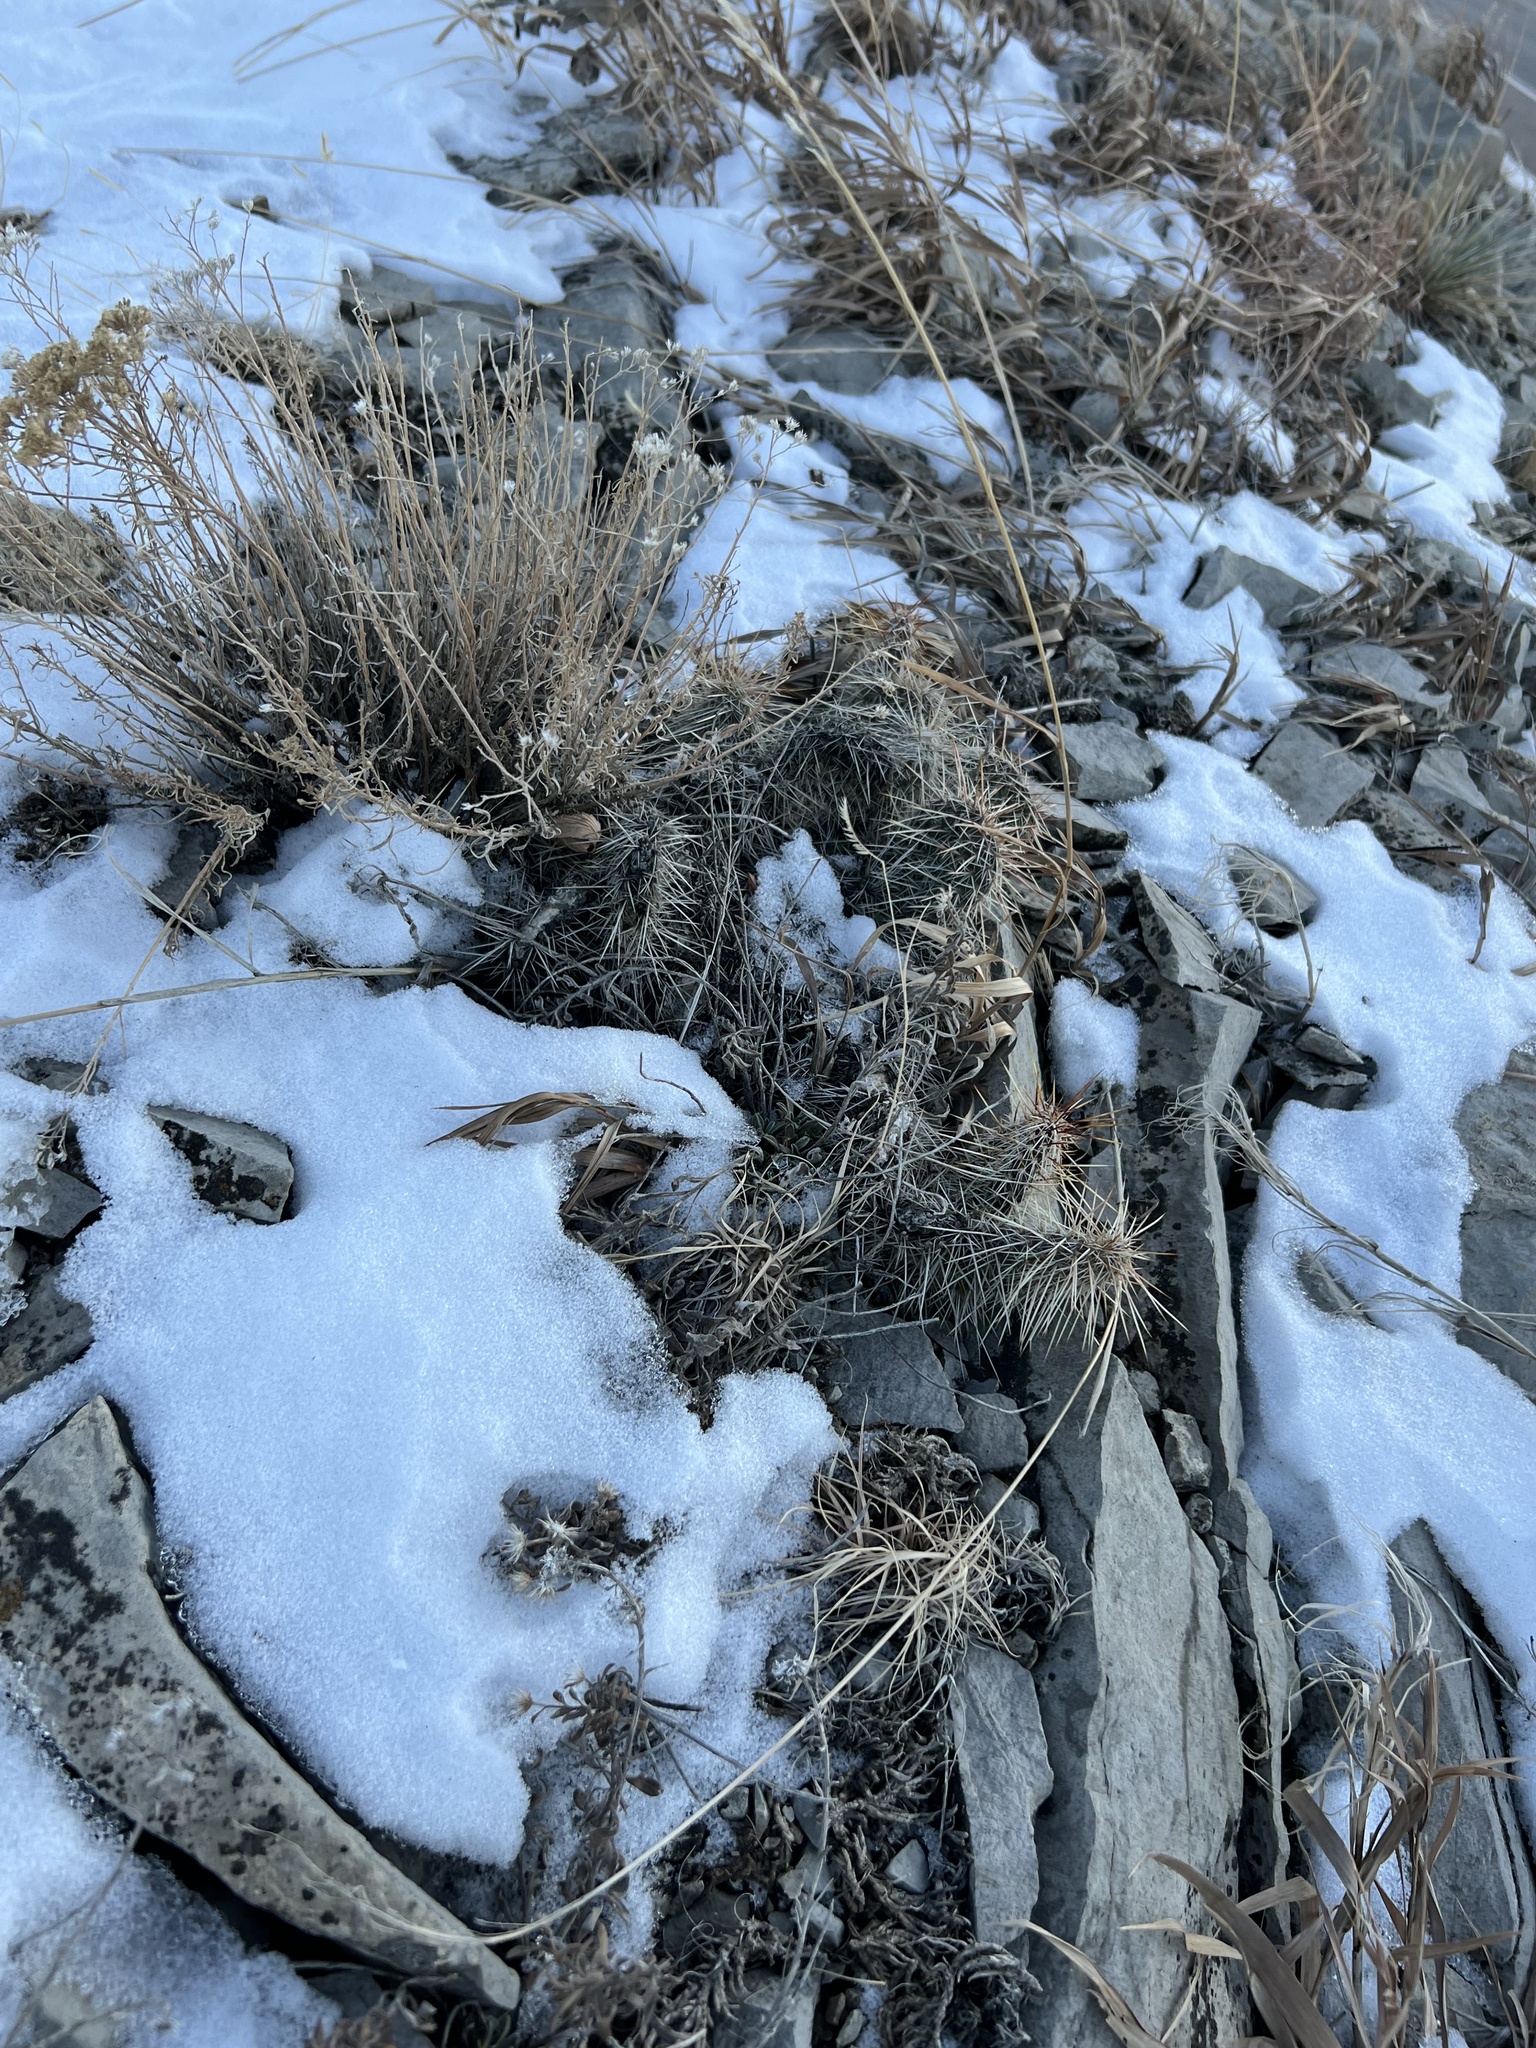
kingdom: Plantae
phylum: Tracheophyta
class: Magnoliopsida
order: Caryophyllales
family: Cactaceae
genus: Opuntia
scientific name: Opuntia polyacantha
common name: Plains prickly-pear
